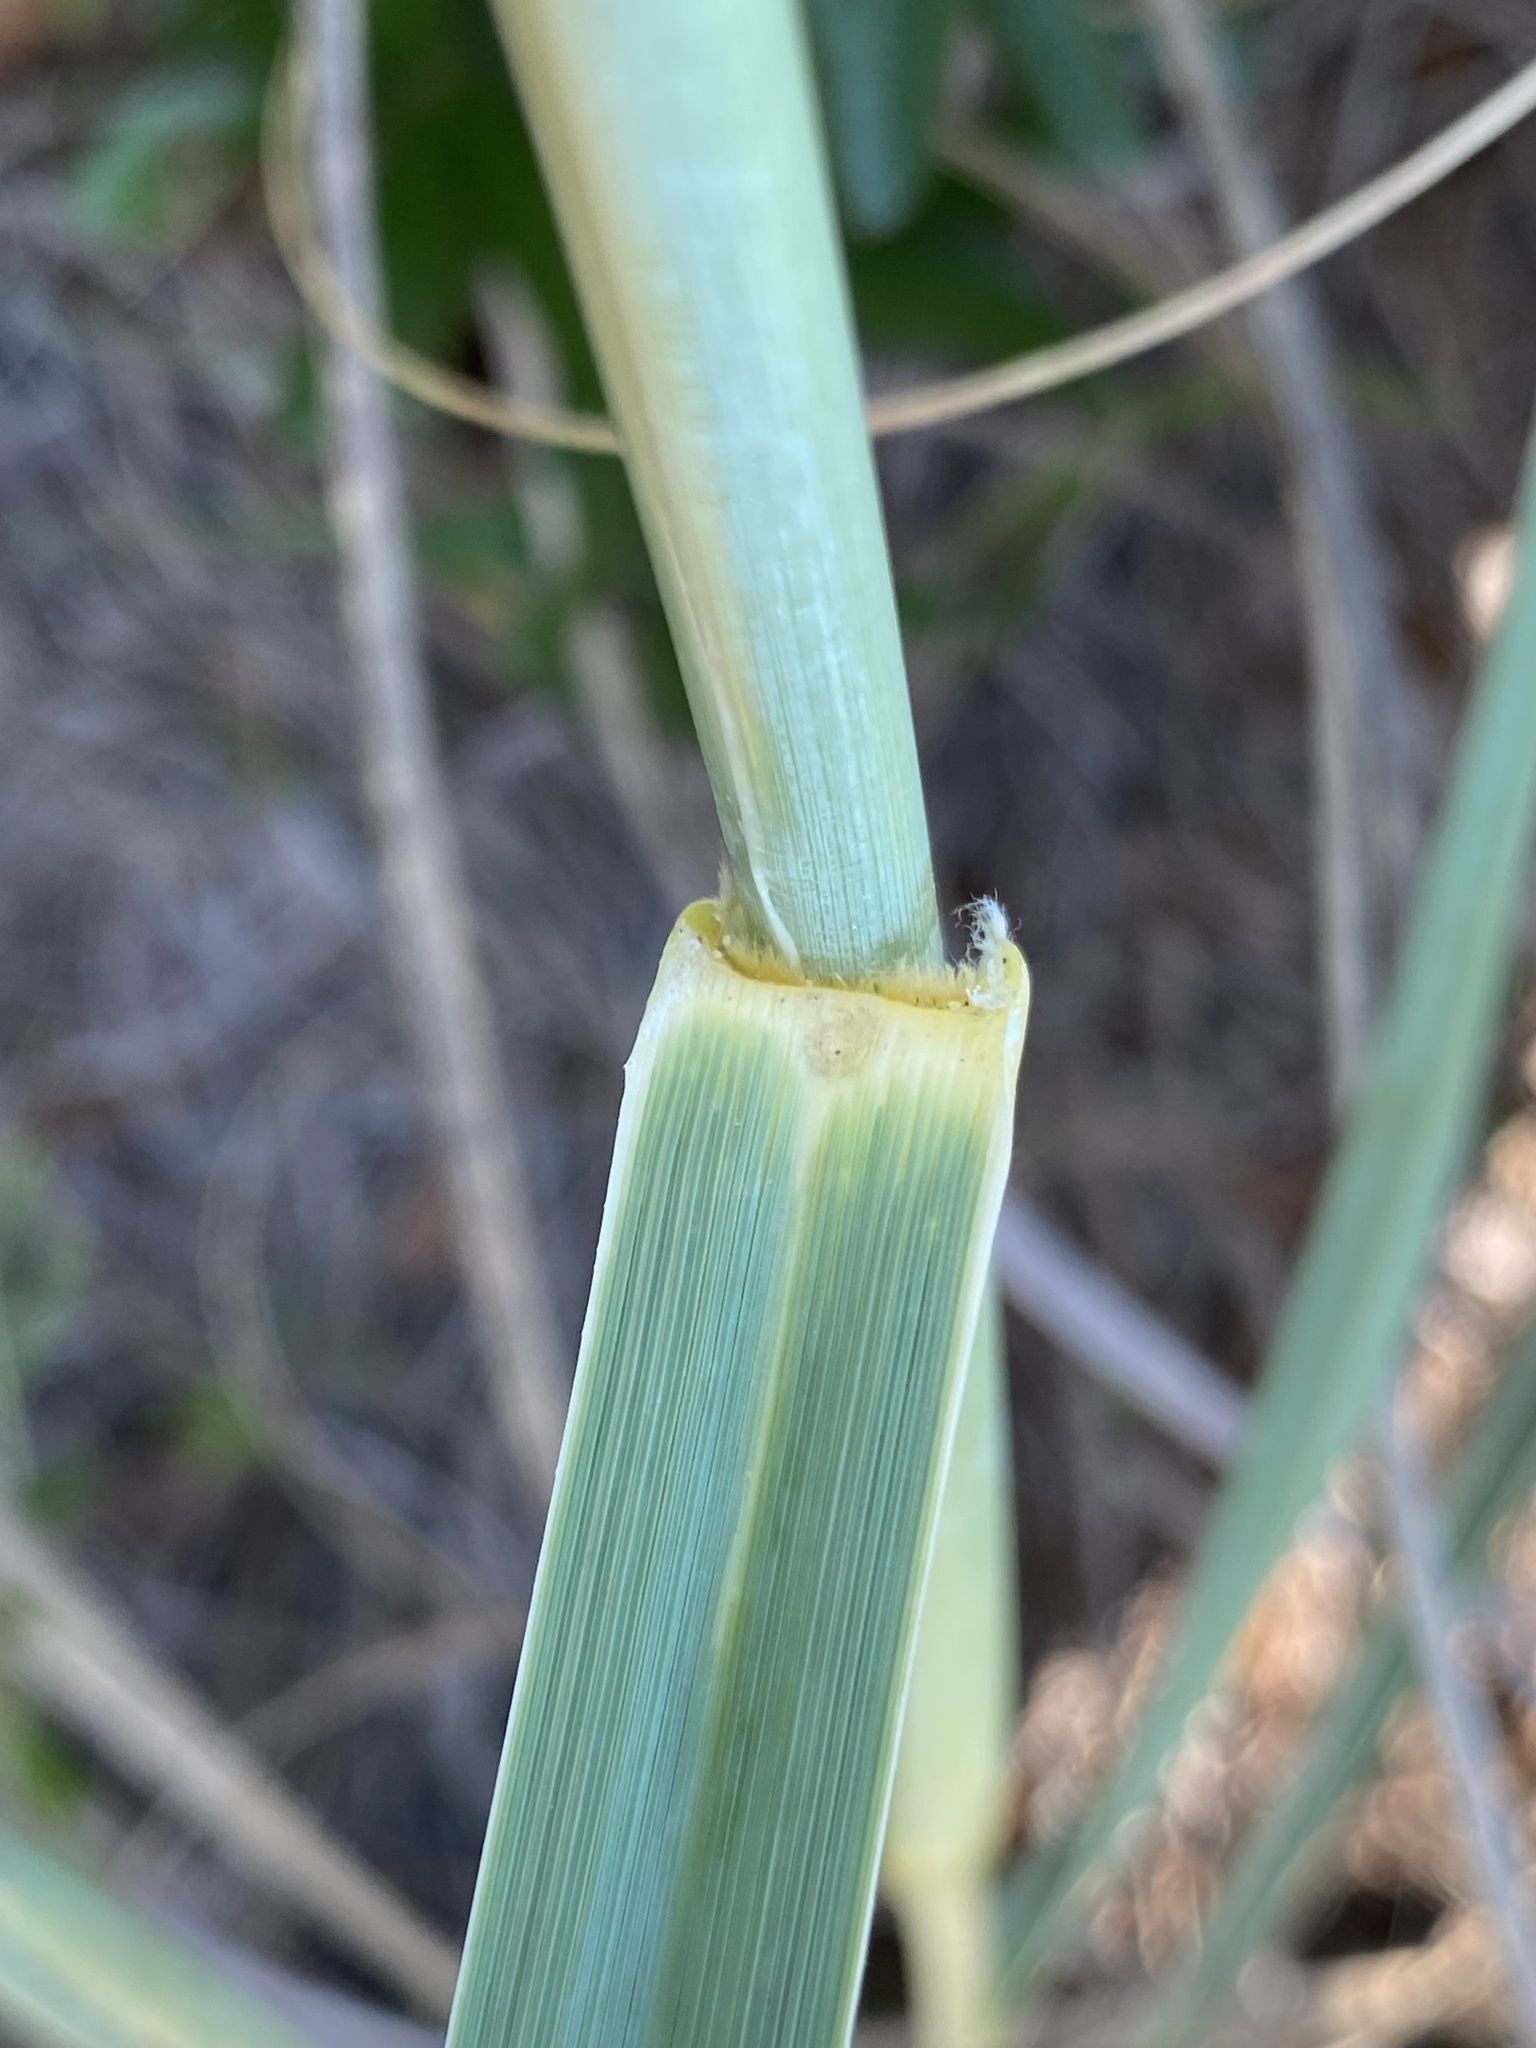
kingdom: Plantae
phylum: Tracheophyta
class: Liliopsida
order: Poales
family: Poaceae
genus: Uniola
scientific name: Uniola paniculata
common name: Seaside-oats
